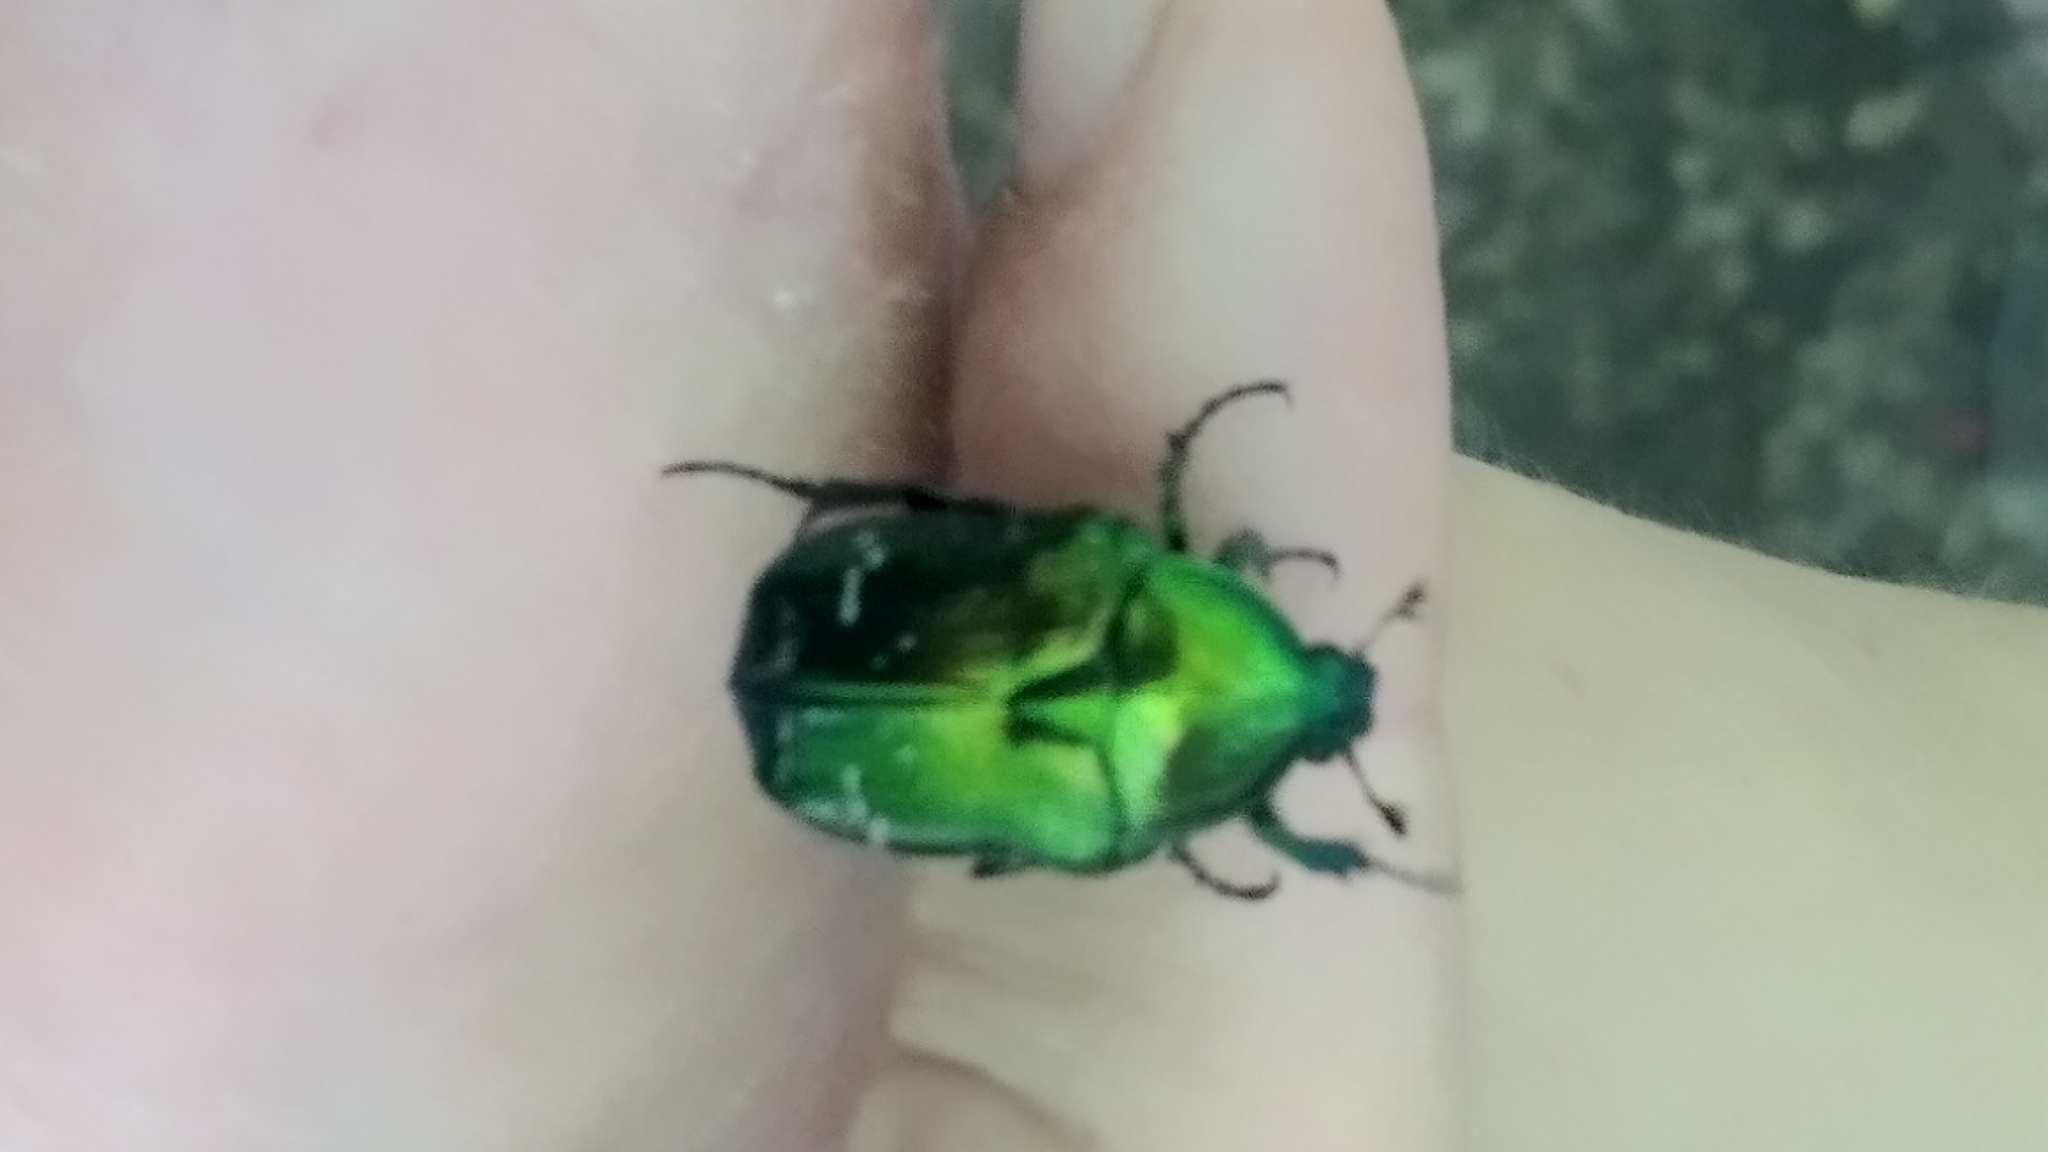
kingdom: Animalia
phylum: Arthropoda
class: Insecta
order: Coleoptera
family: Scarabaeidae
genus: Cetonia
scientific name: Cetonia aurata
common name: Rose chafer
